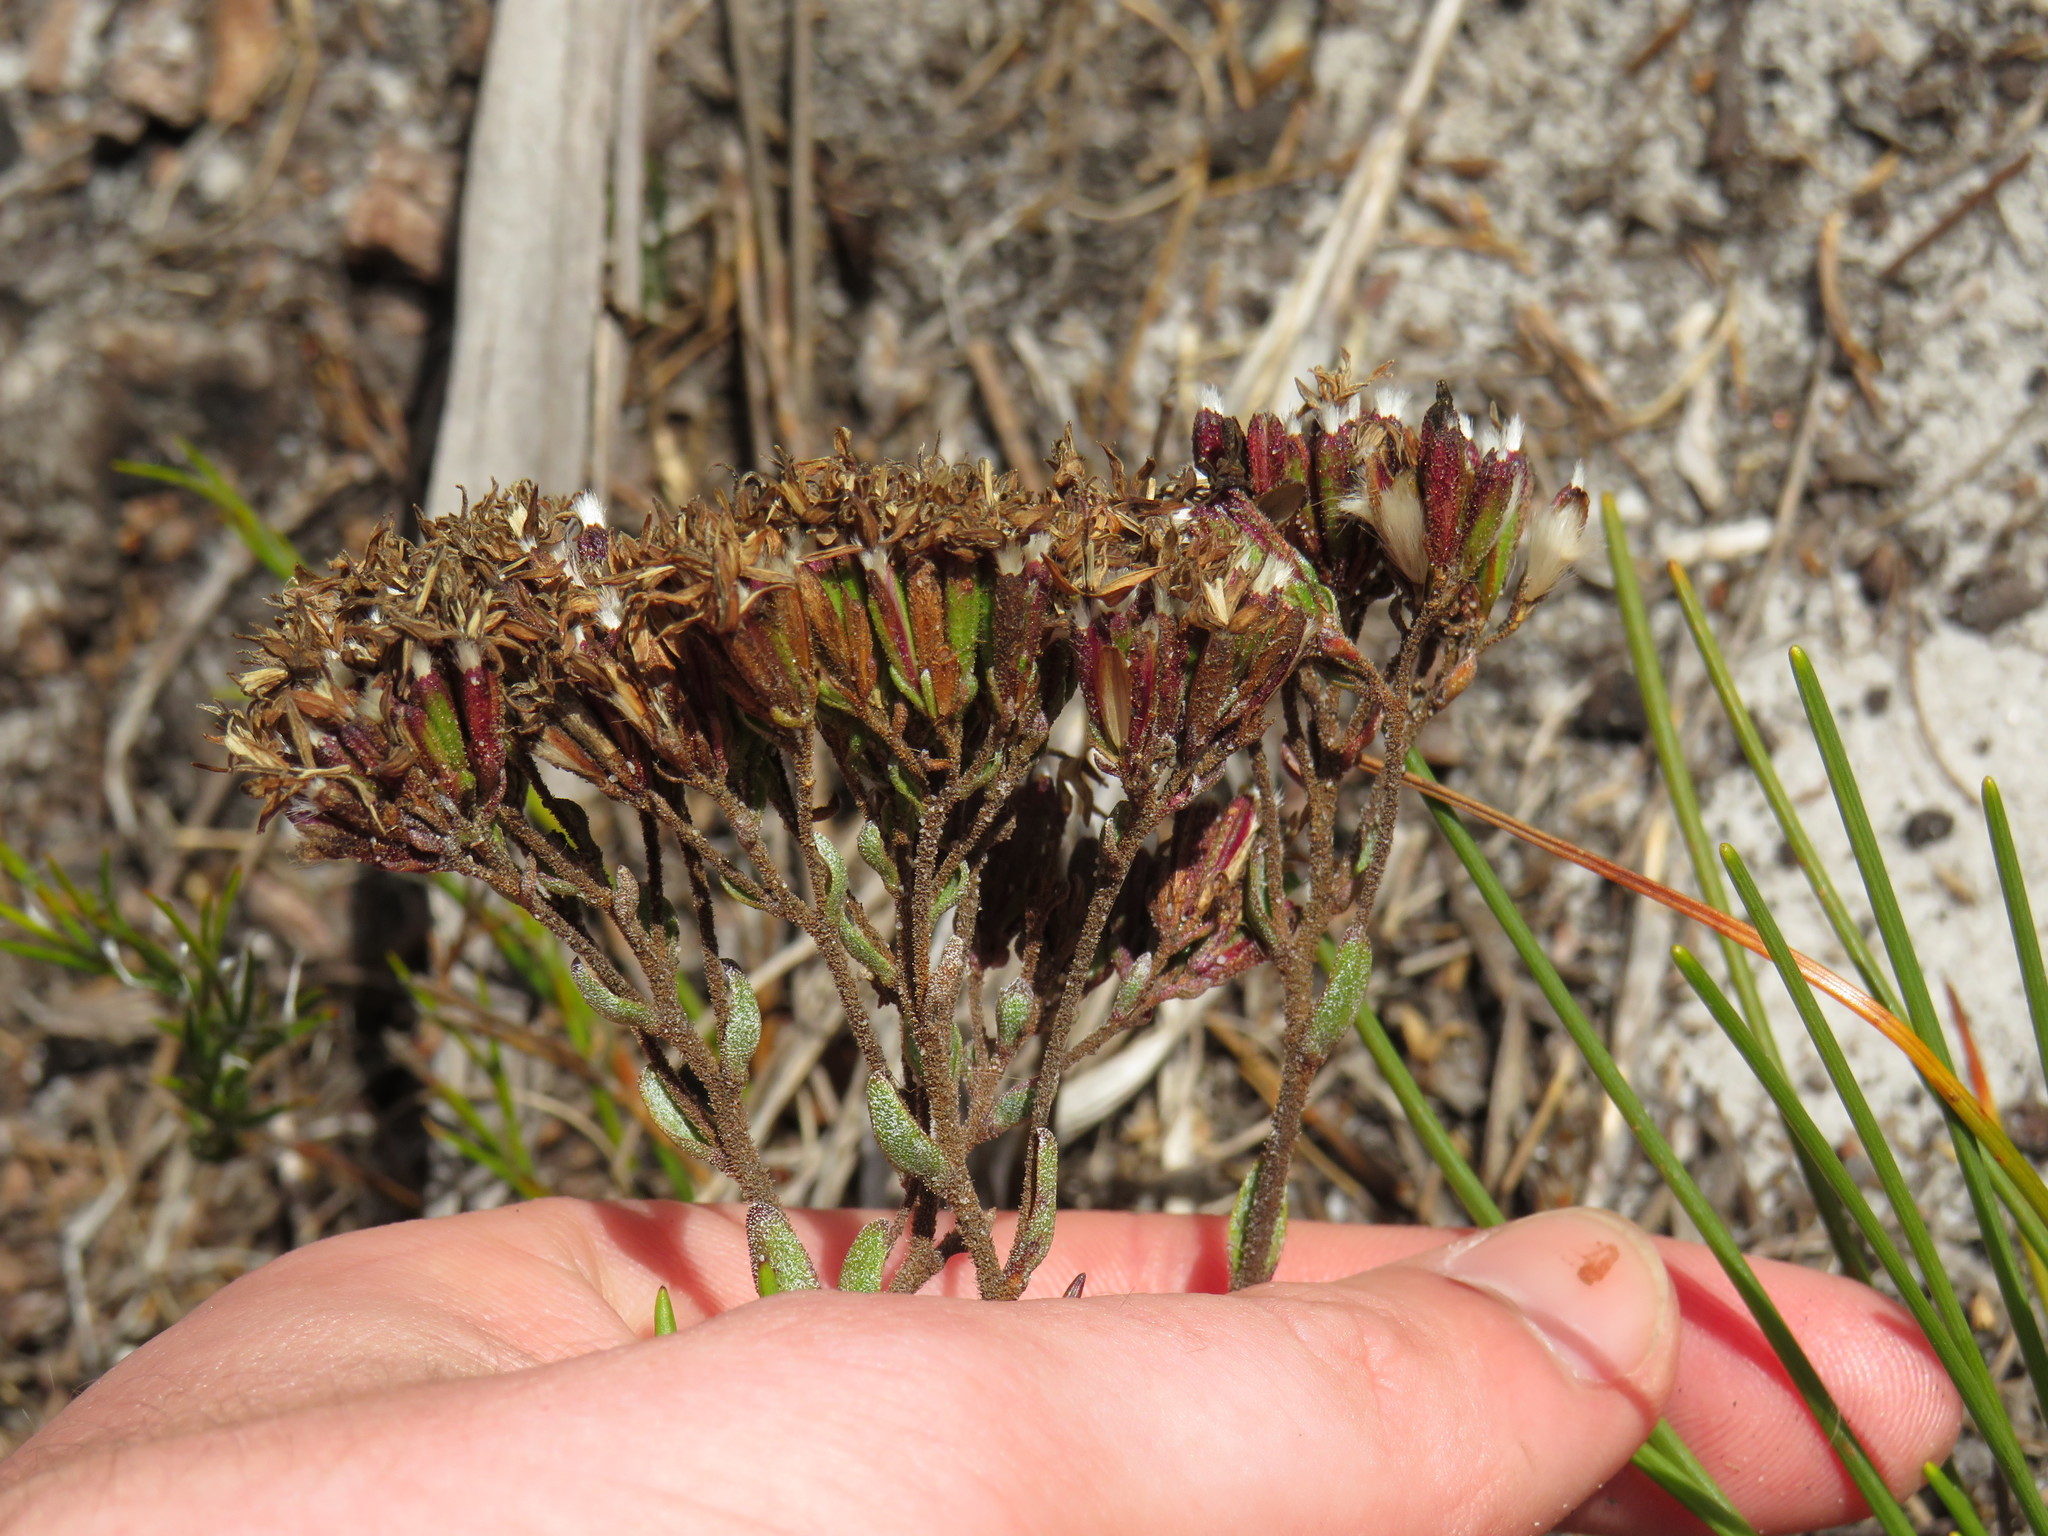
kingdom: Plantae
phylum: Tracheophyta
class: Magnoliopsida
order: Asterales
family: Asteraceae
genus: Corymbium
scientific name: Corymbium africanum
